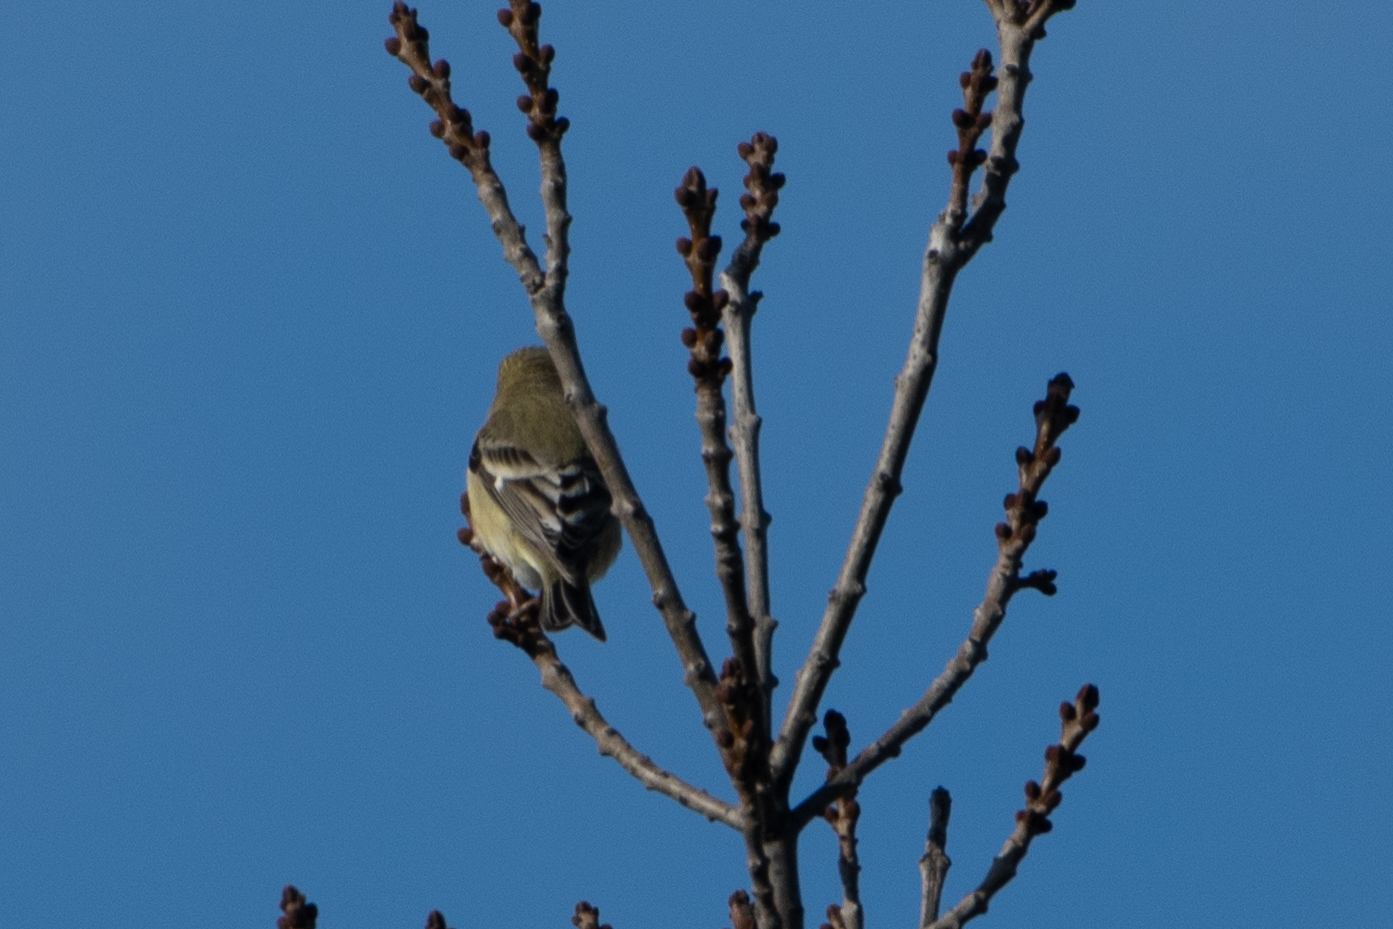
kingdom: Animalia
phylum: Chordata
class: Aves
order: Passeriformes
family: Fringillidae
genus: Spinus
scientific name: Spinus psaltria
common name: Lesser goldfinch
